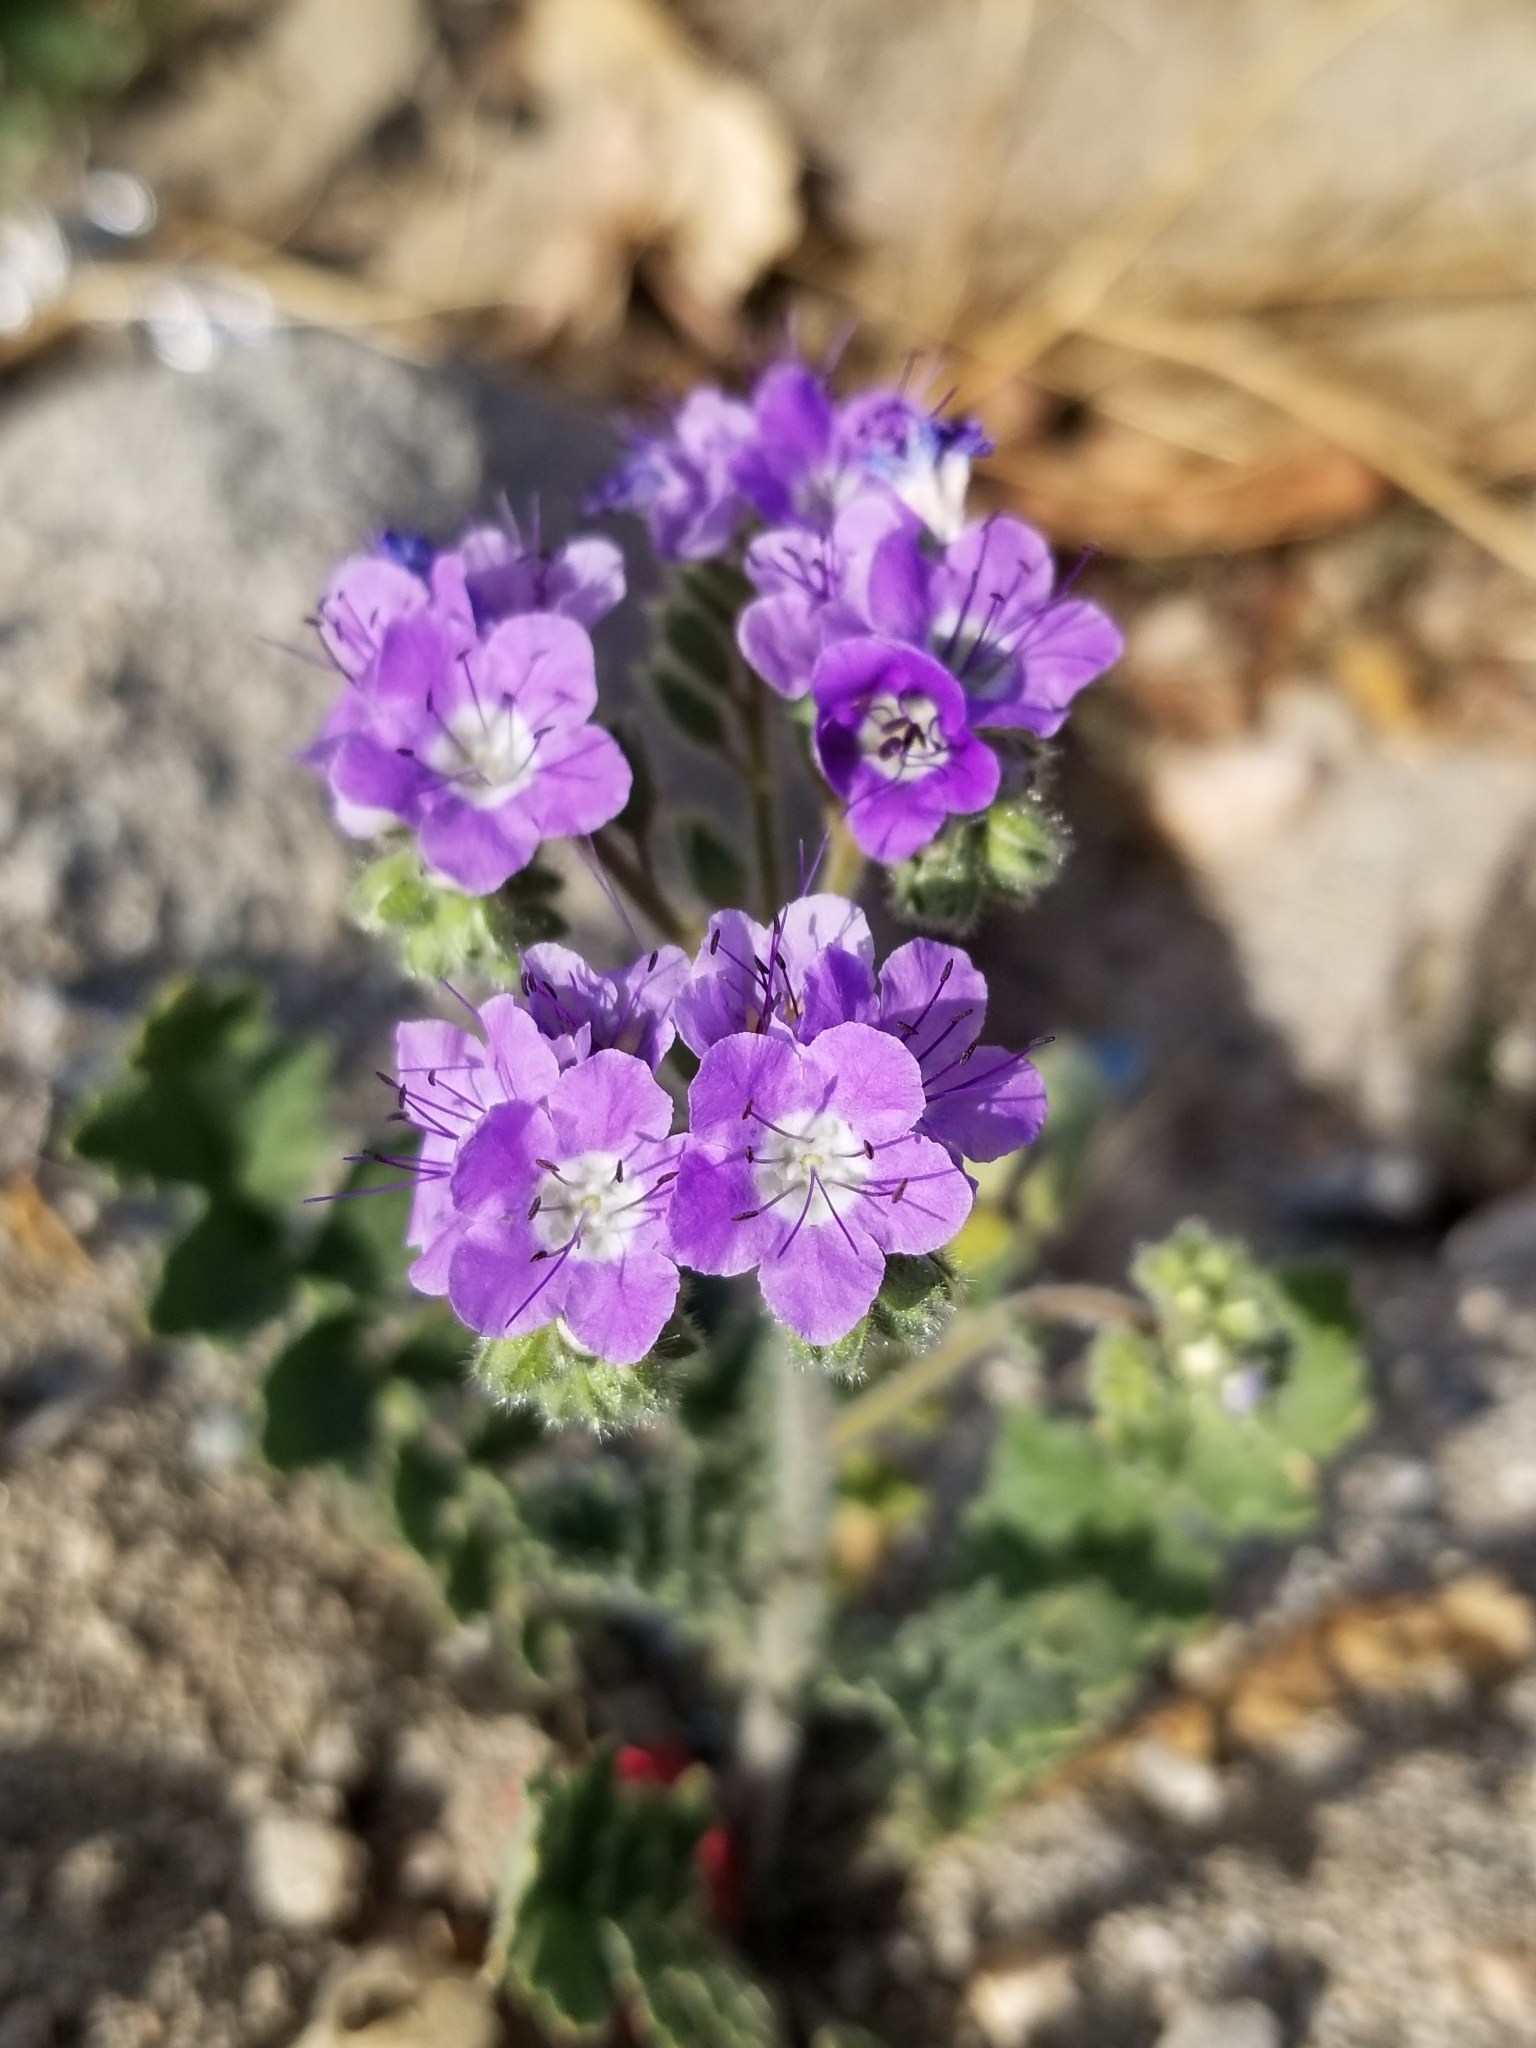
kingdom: Plantae
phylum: Tracheophyta
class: Magnoliopsida
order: Boraginales
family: Hydrophyllaceae
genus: Phacelia
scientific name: Phacelia crenulata
